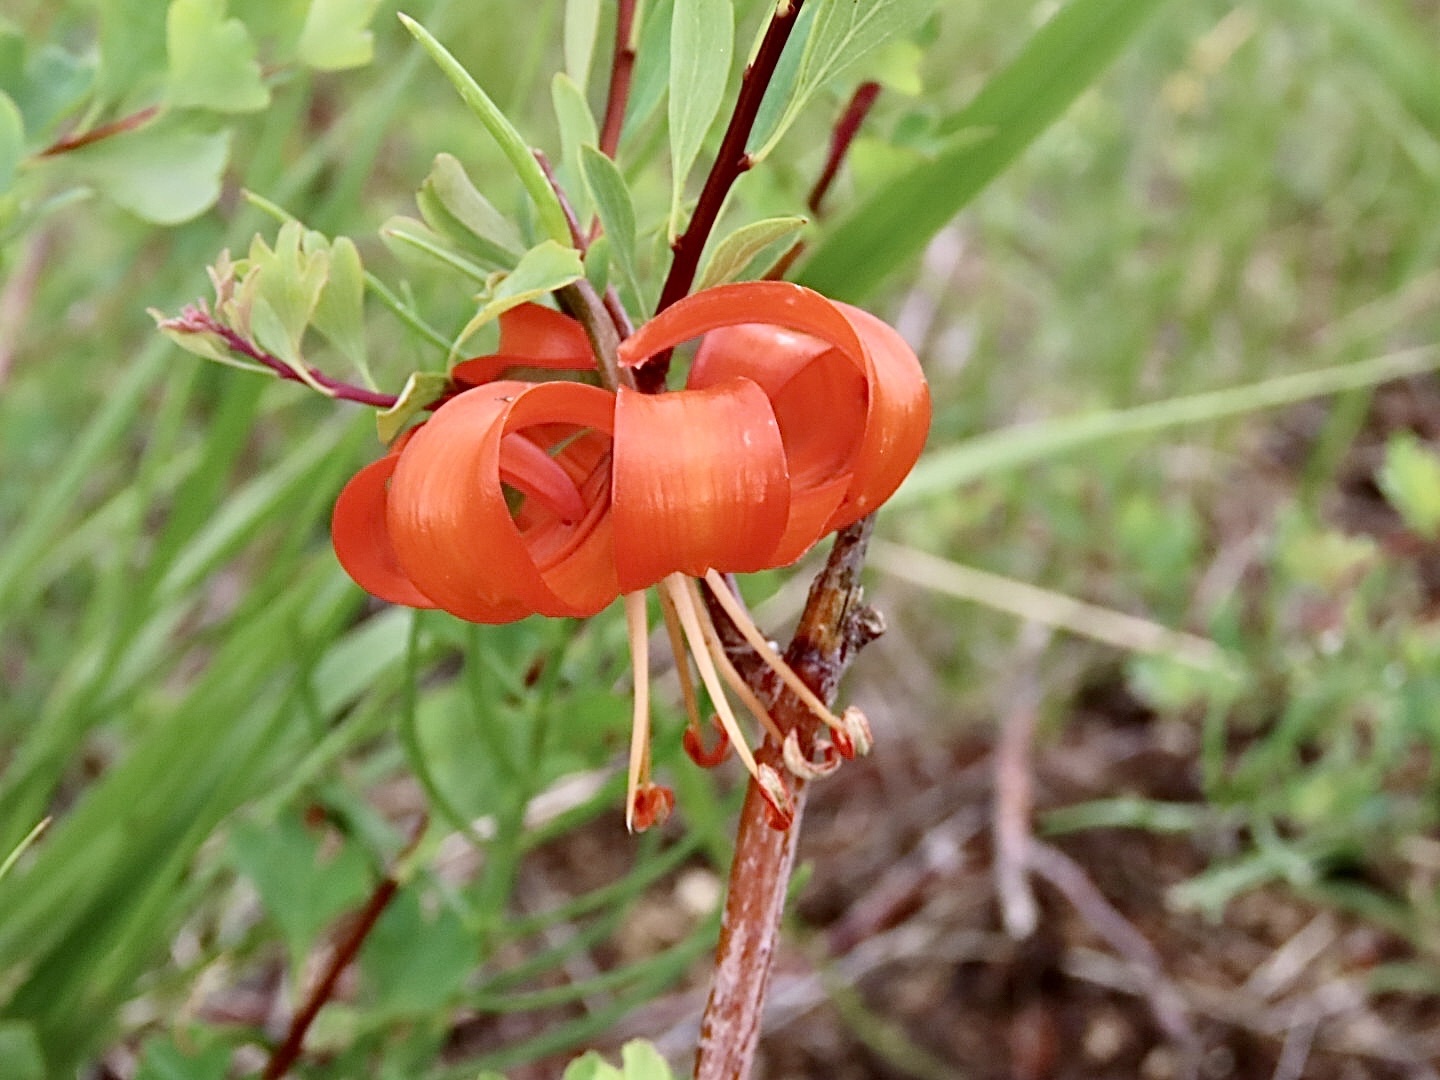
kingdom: Plantae
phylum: Tracheophyta
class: Liliopsida
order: Liliales
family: Liliaceae
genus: Lilium
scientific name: Lilium pumilum
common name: Coral lily
